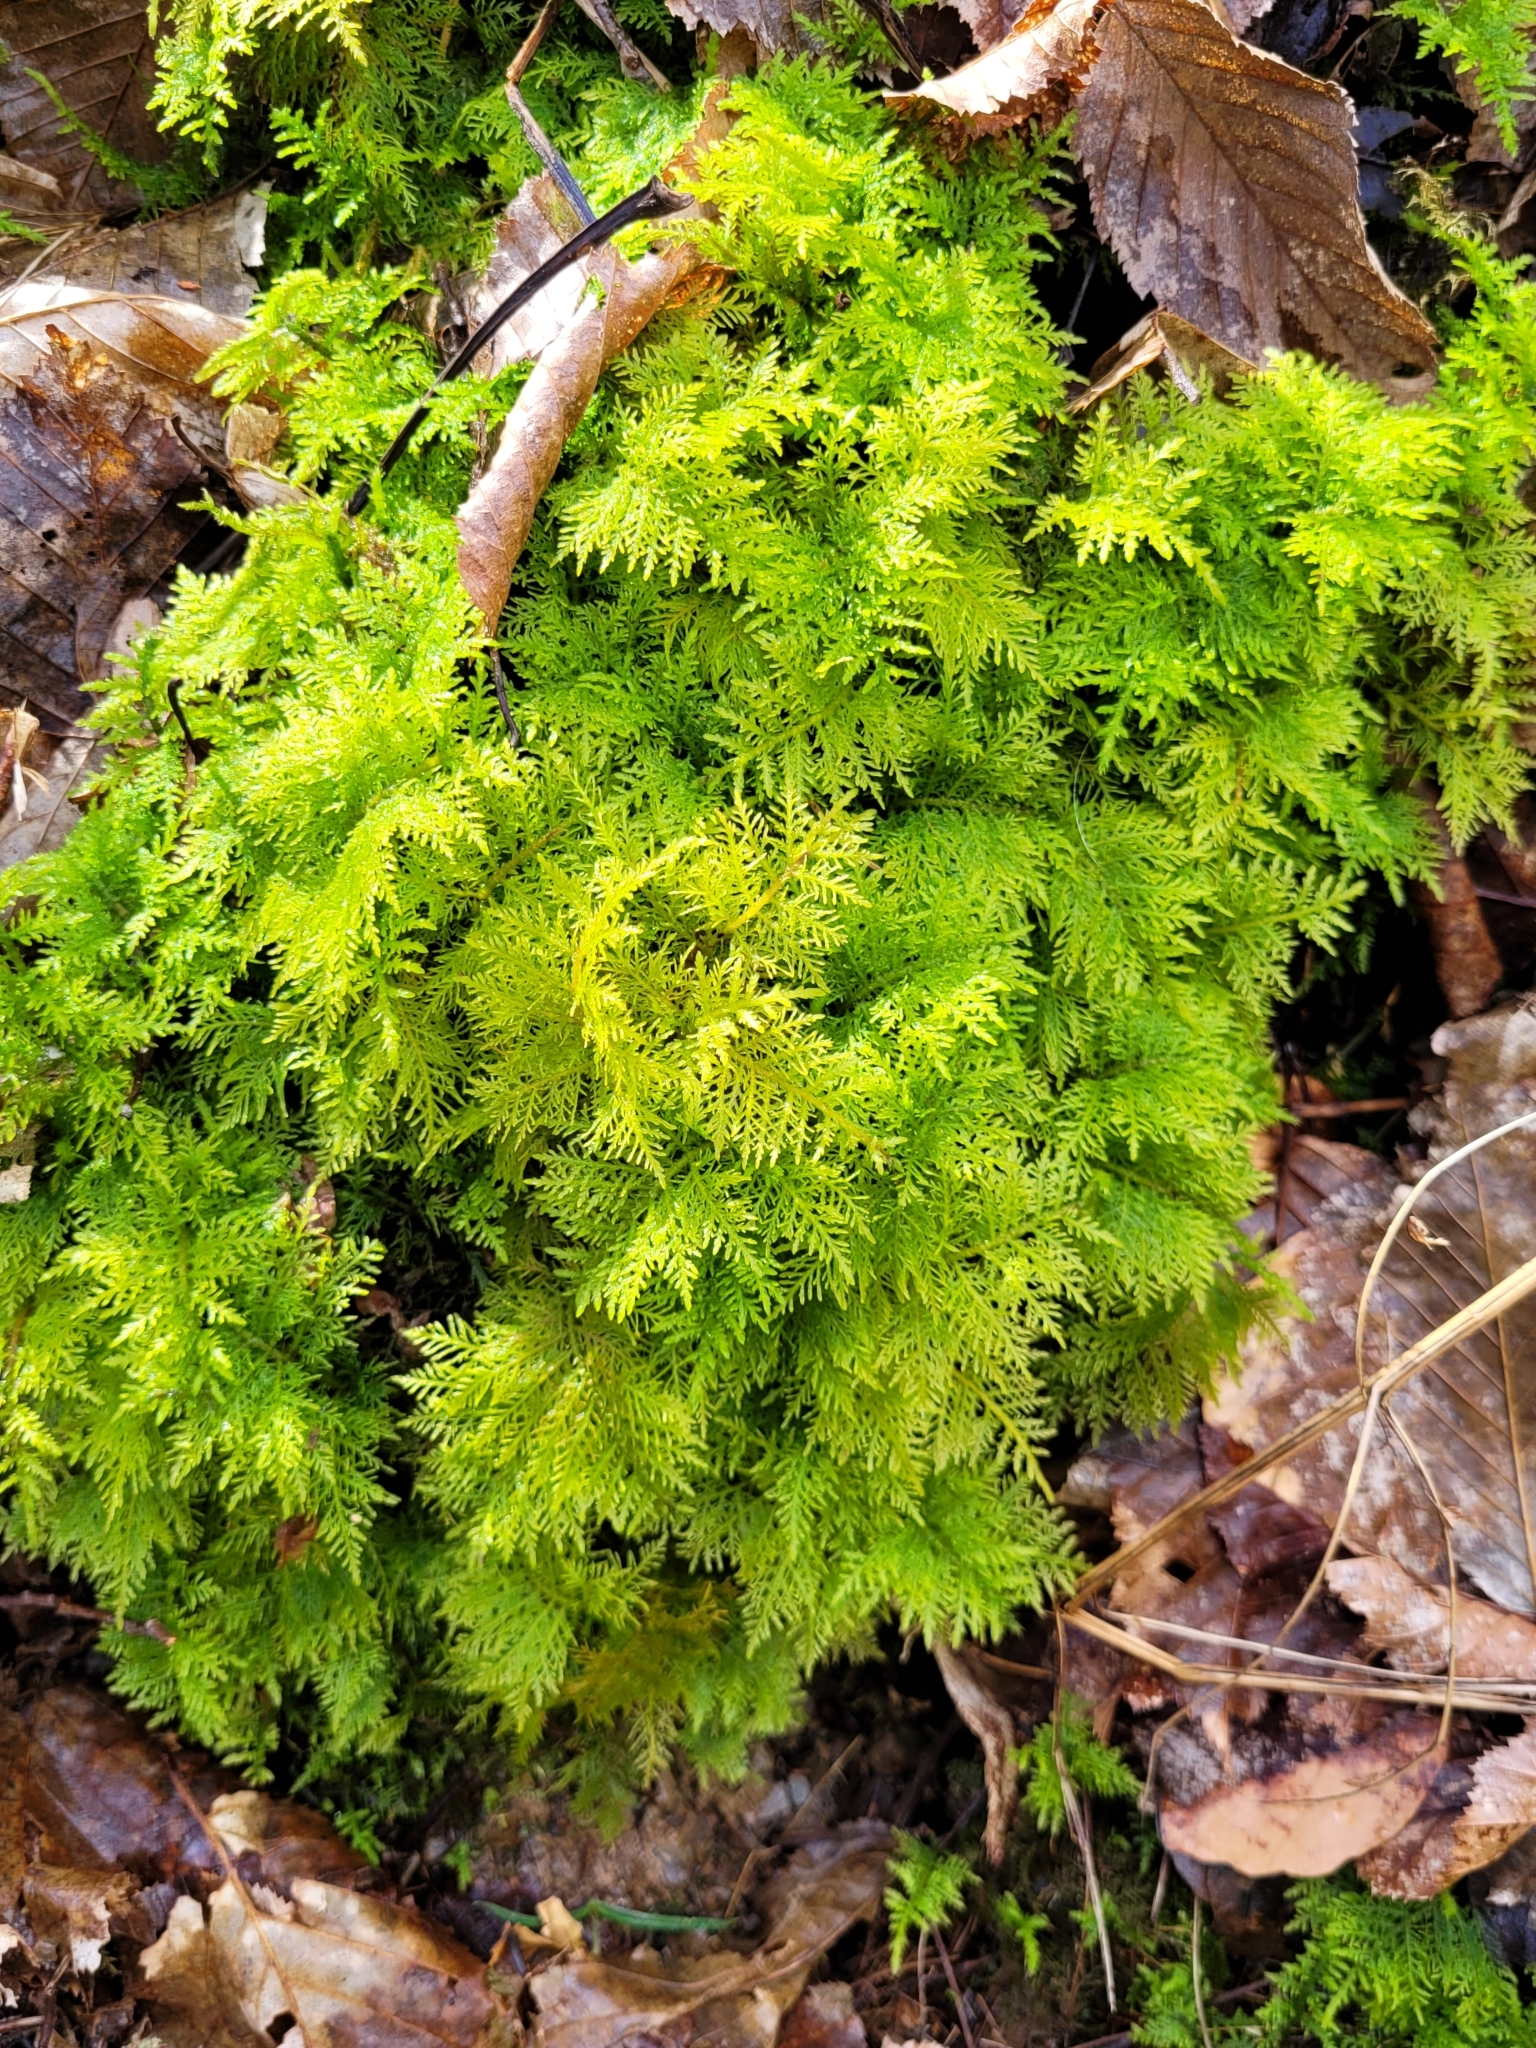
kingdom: Plantae
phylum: Bryophyta
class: Bryopsida
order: Hypnales
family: Thuidiaceae
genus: Thuidium
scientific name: Thuidium tamariscinum
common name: Common tamarisk-moss
